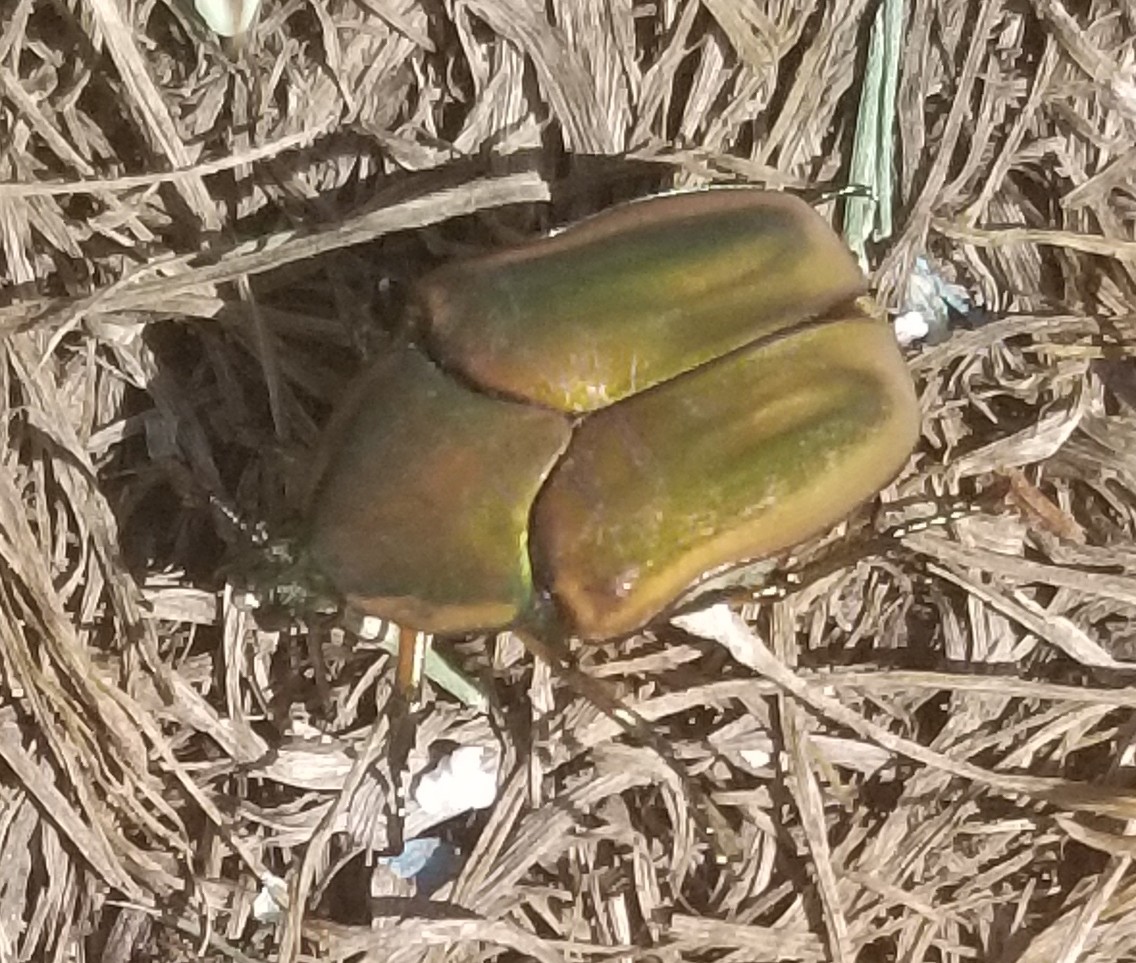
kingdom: Animalia
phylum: Arthropoda
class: Insecta
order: Coleoptera
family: Scarabaeidae
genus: Cotinis
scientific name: Cotinis nitida
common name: Common green june beetle
